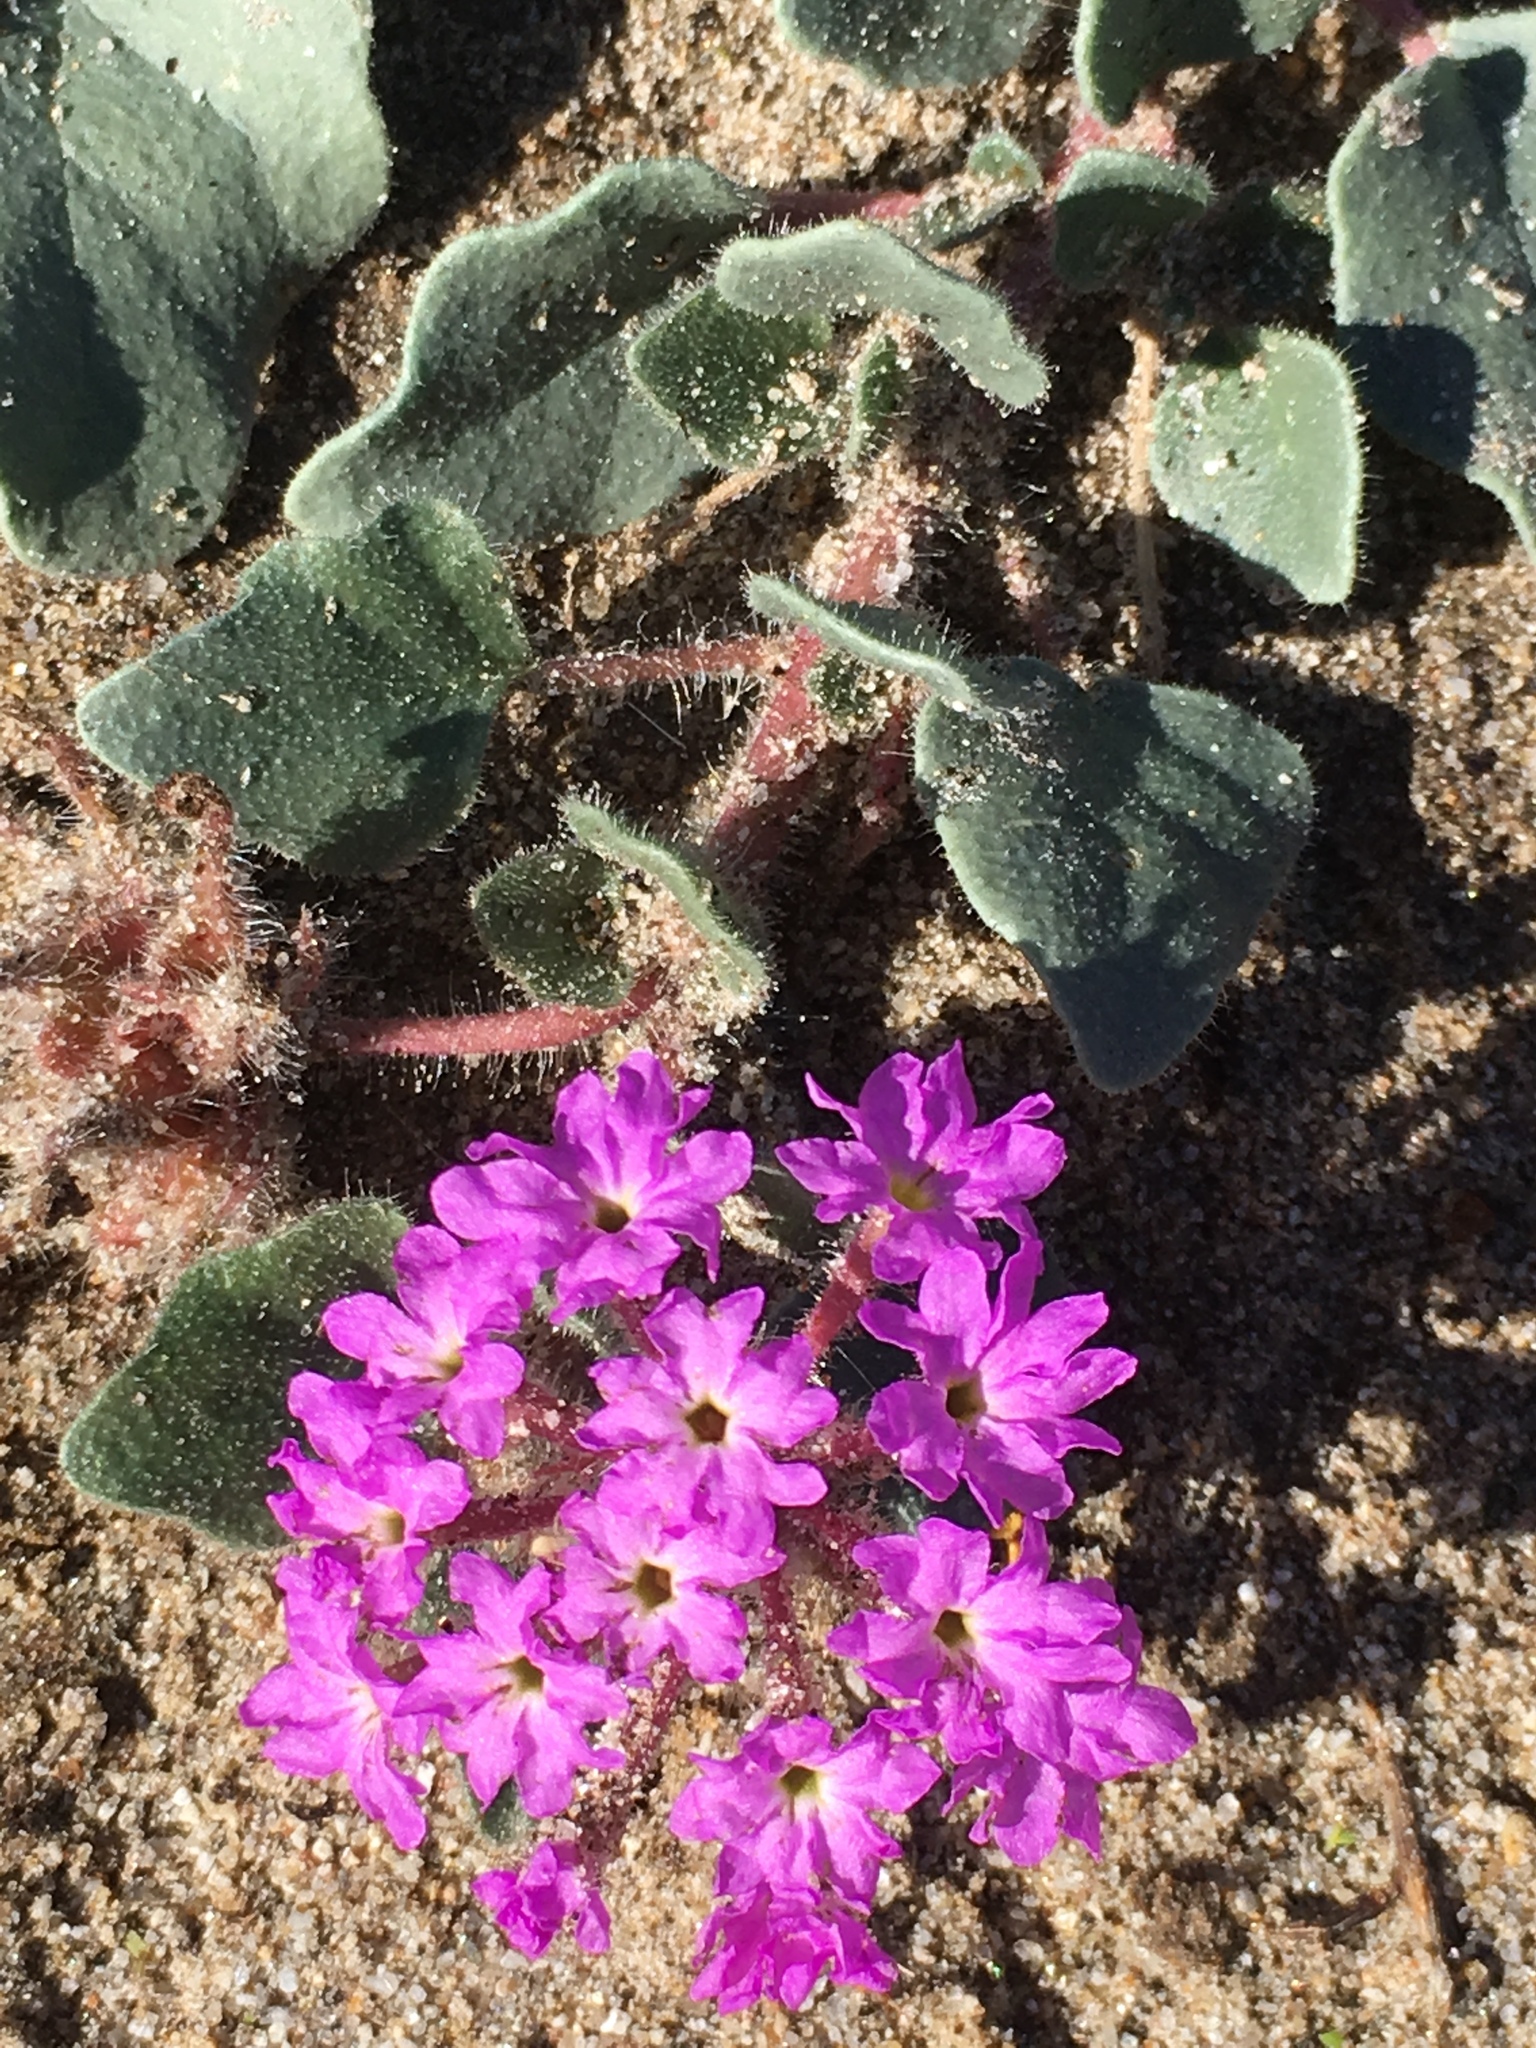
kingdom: Plantae
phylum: Tracheophyta
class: Magnoliopsida
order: Caryophyllales
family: Nyctaginaceae
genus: Abronia
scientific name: Abronia villosa
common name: Desert sand-verbena
